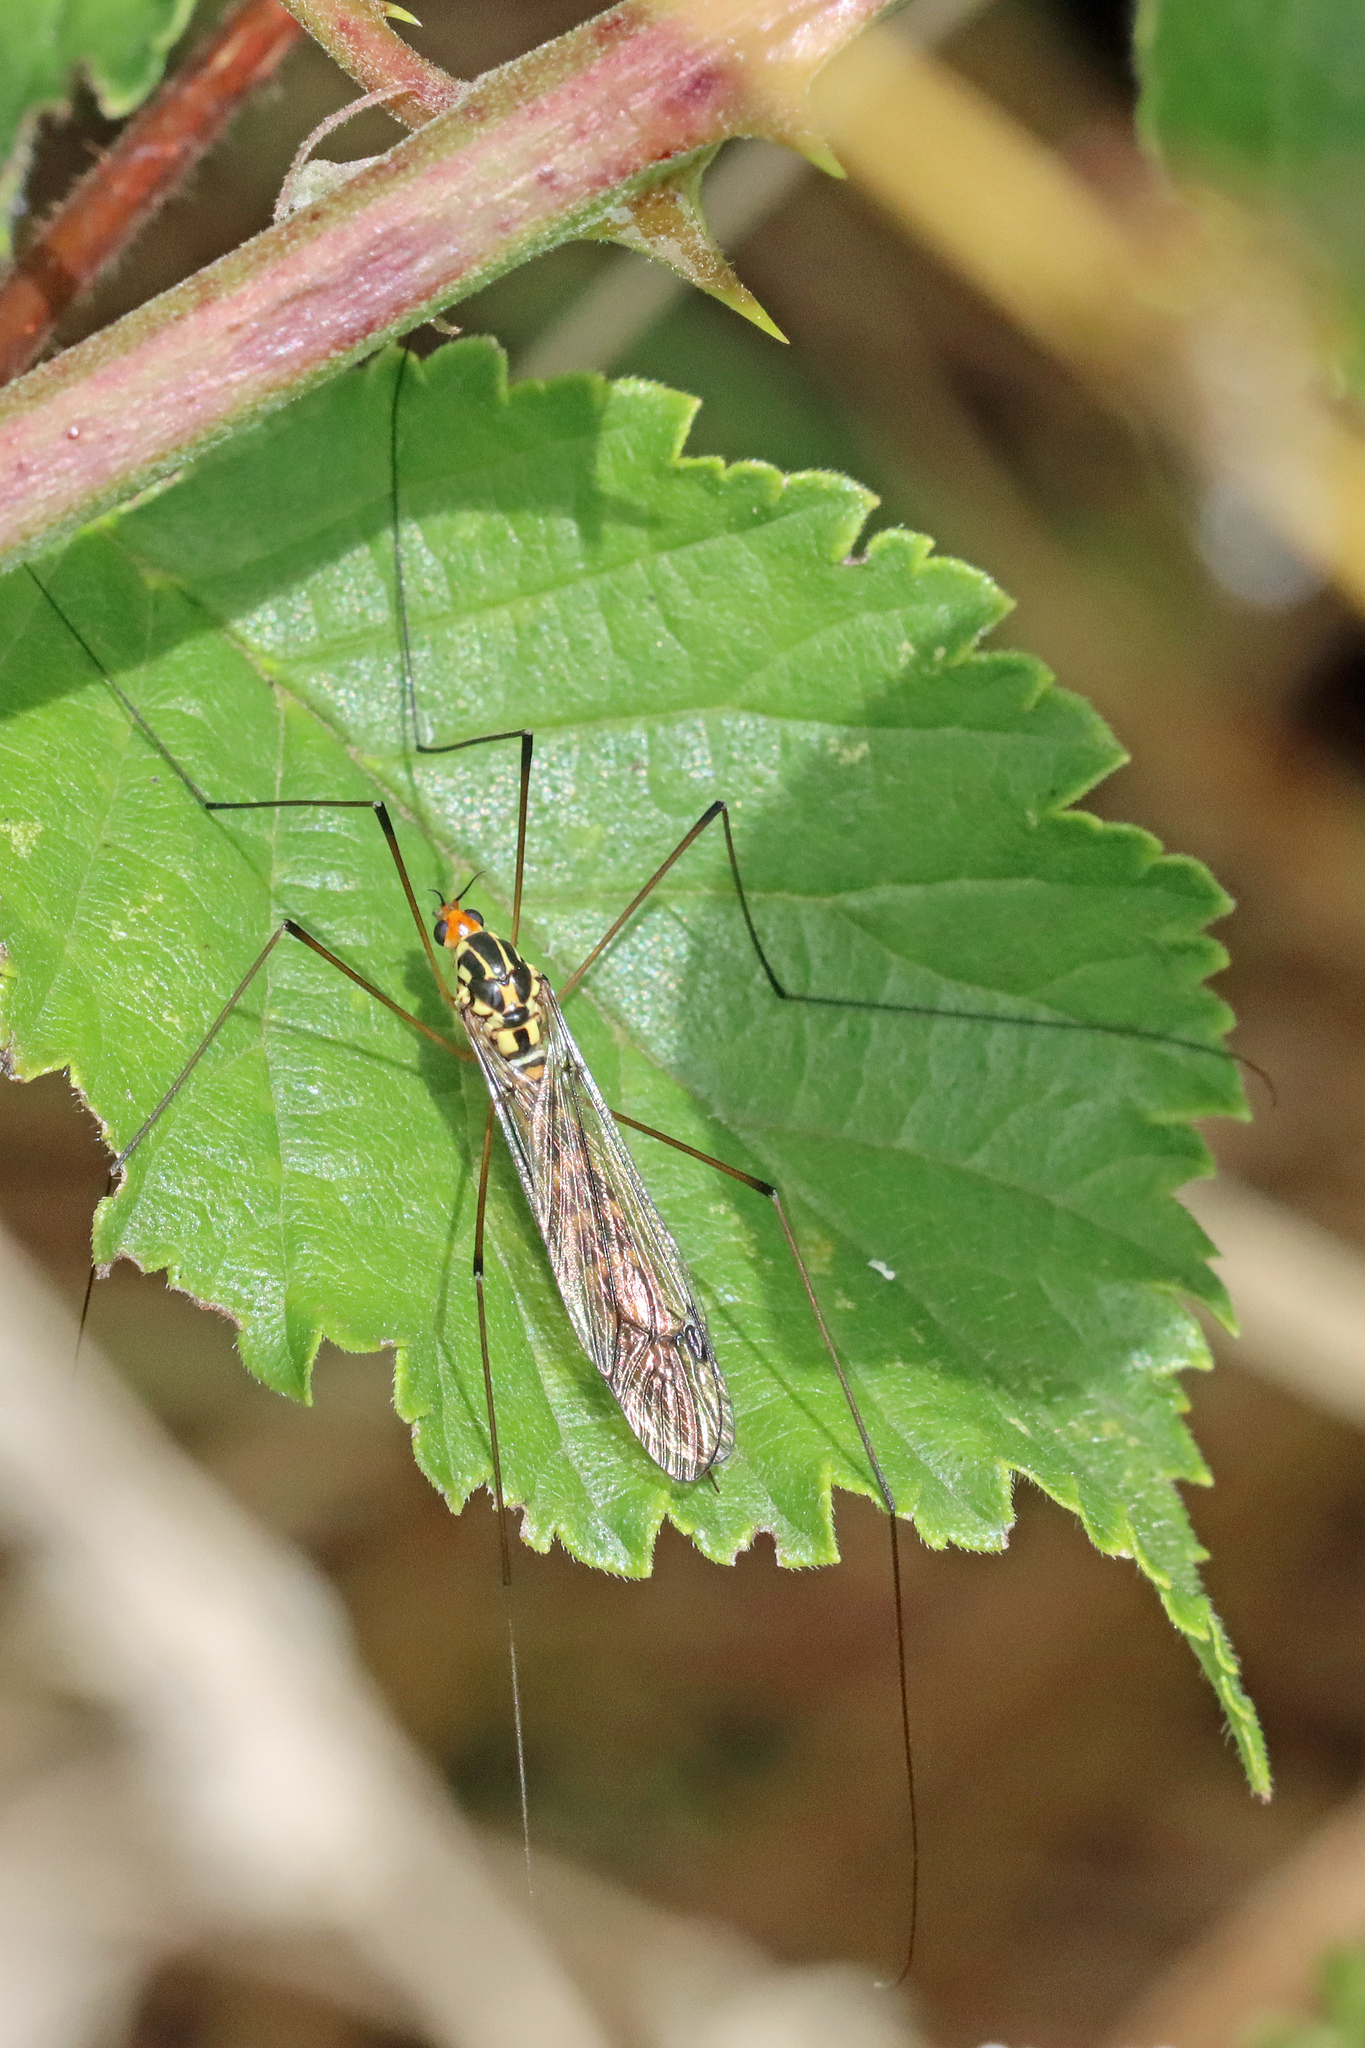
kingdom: Animalia
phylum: Arthropoda
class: Insecta
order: Diptera
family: Tipulidae
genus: Nephrotoma
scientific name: Nephrotoma flavipalpis
